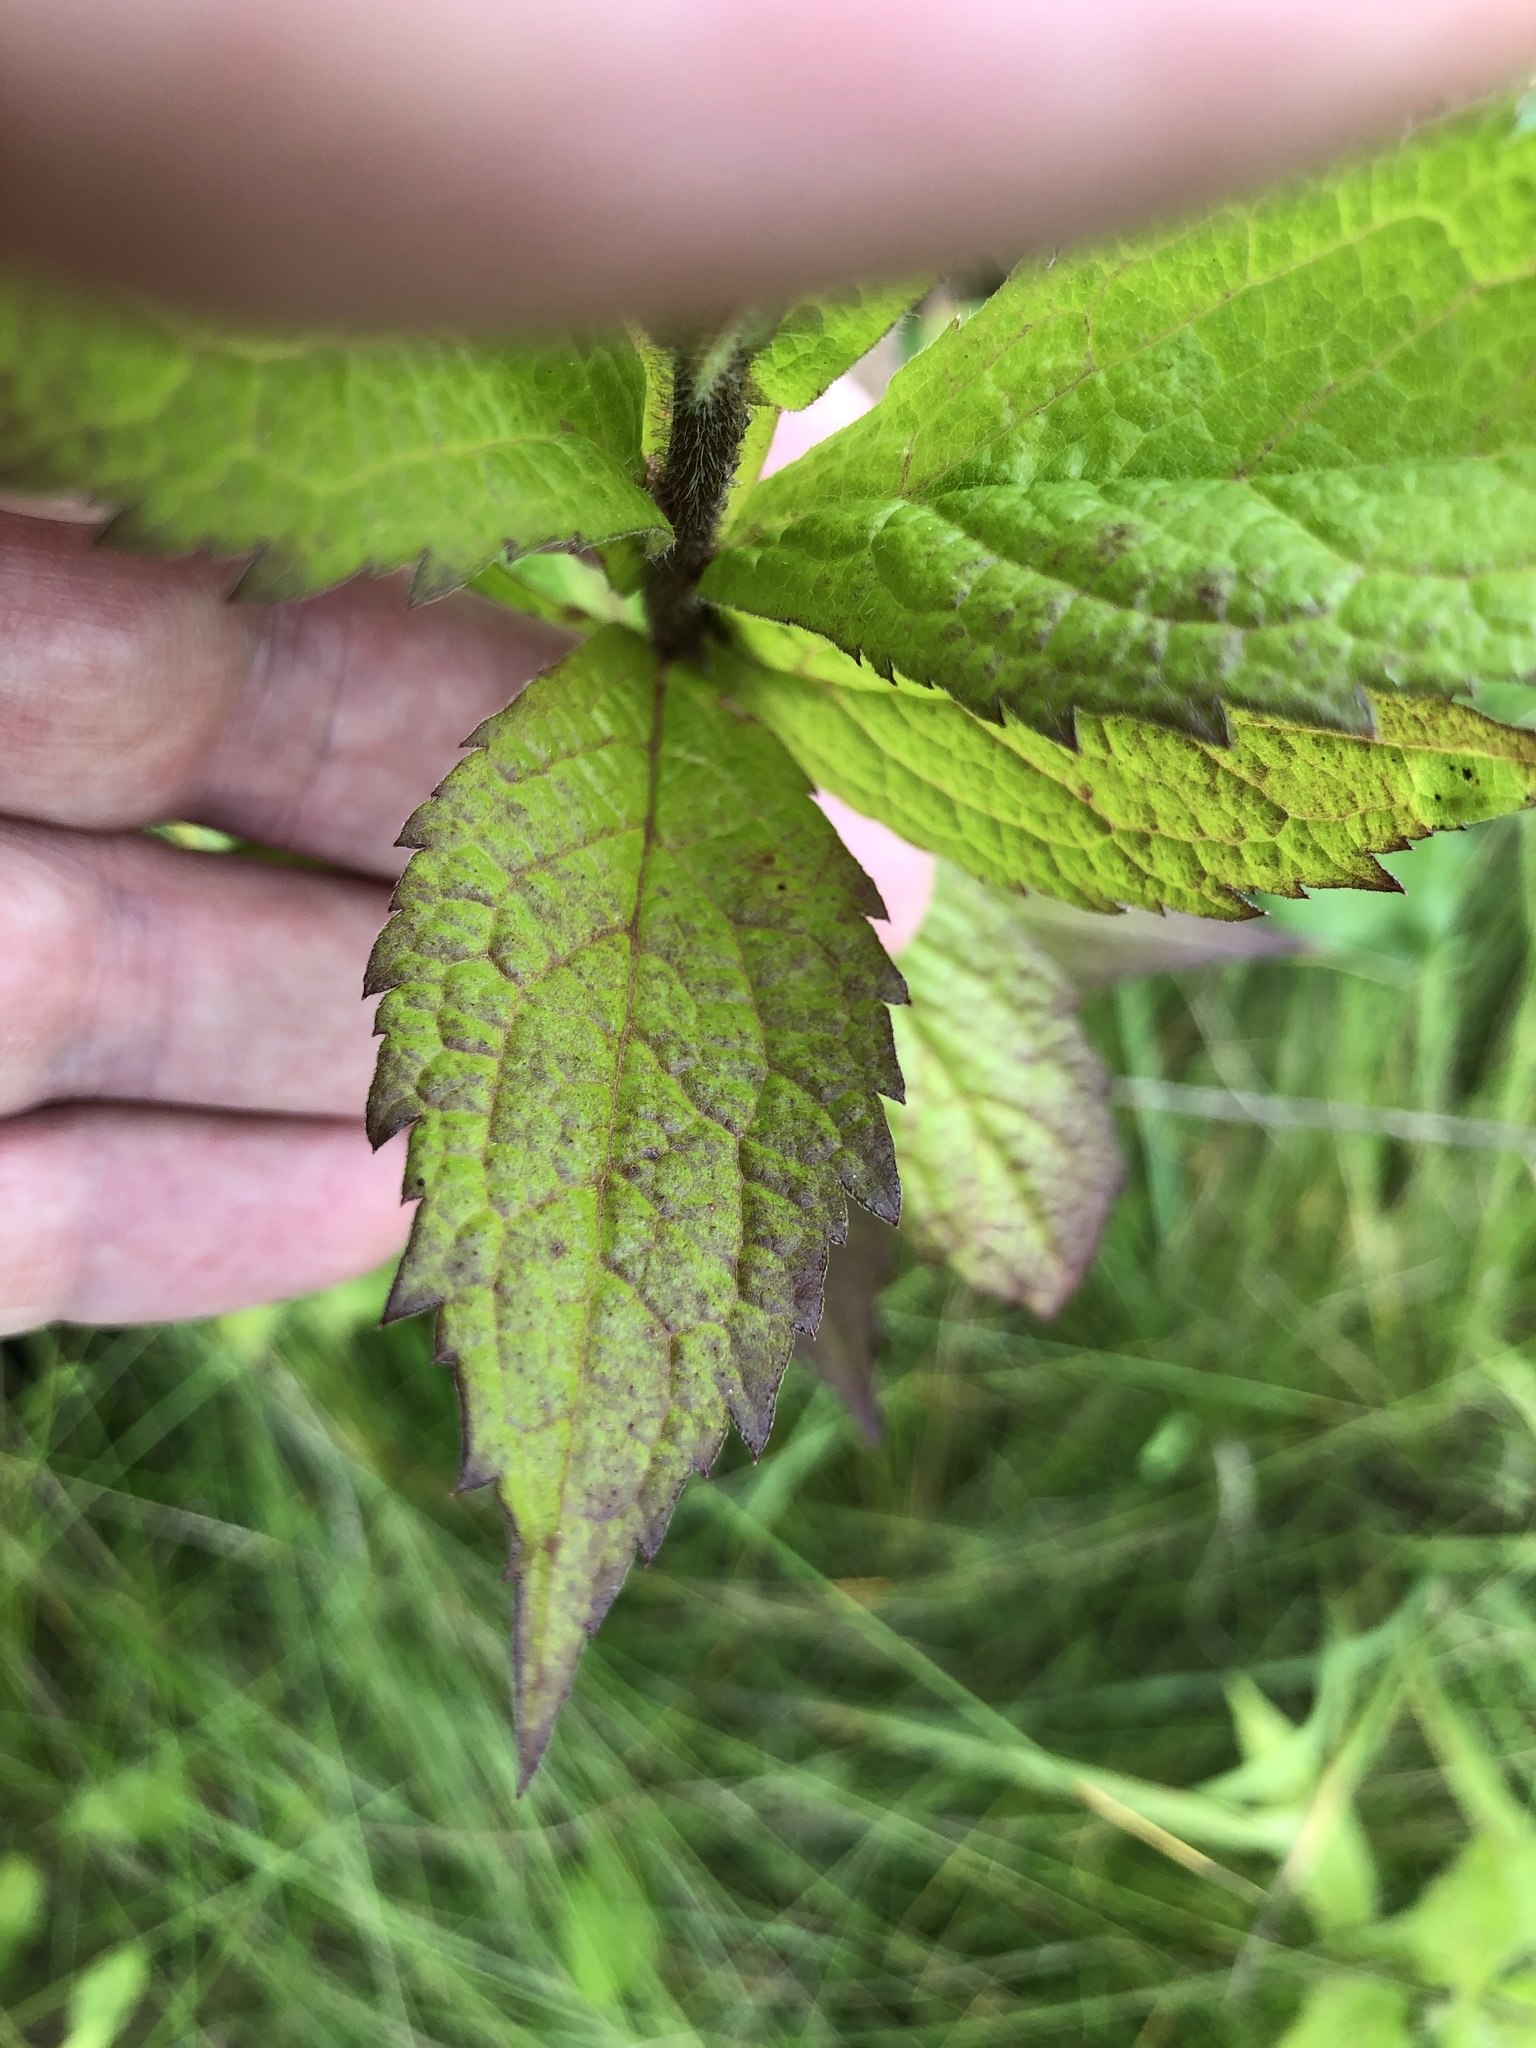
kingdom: Plantae
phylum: Tracheophyta
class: Magnoliopsida
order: Asterales
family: Asteraceae
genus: Solidago
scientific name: Solidago rugosa
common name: Rough-stemmed goldenrod
